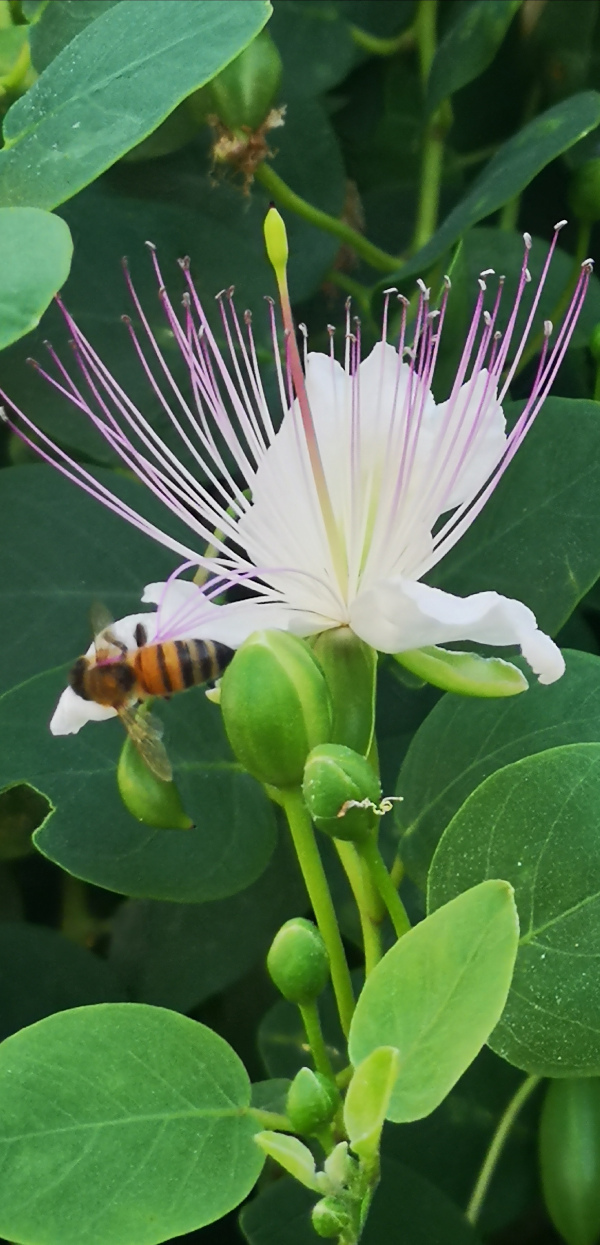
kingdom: Plantae
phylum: Tracheophyta
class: Magnoliopsida
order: Brassicales
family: Capparaceae
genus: Capparis
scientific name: Capparis orientalis
